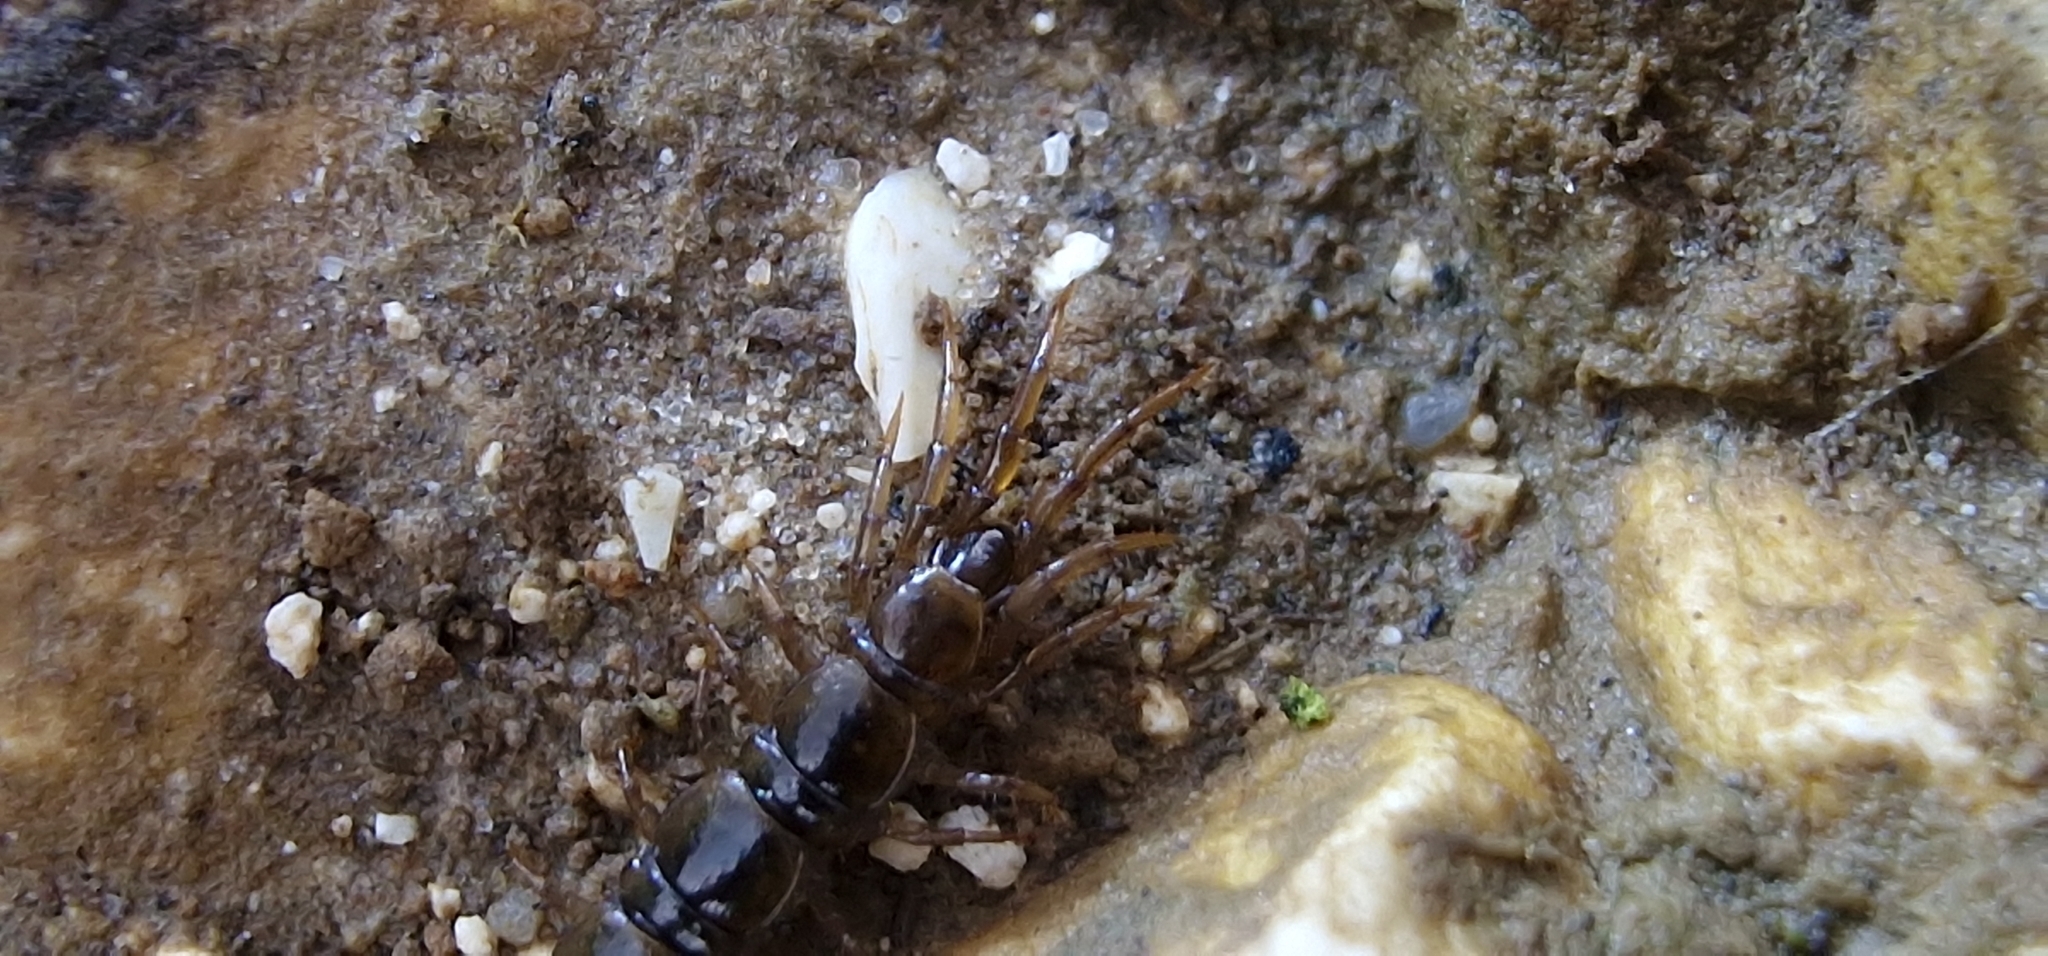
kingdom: Animalia
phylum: Arthropoda
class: Chilopoda
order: Lithobiomorpha
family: Lithobiidae
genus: Lithobius
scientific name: Lithobius calcaratus
